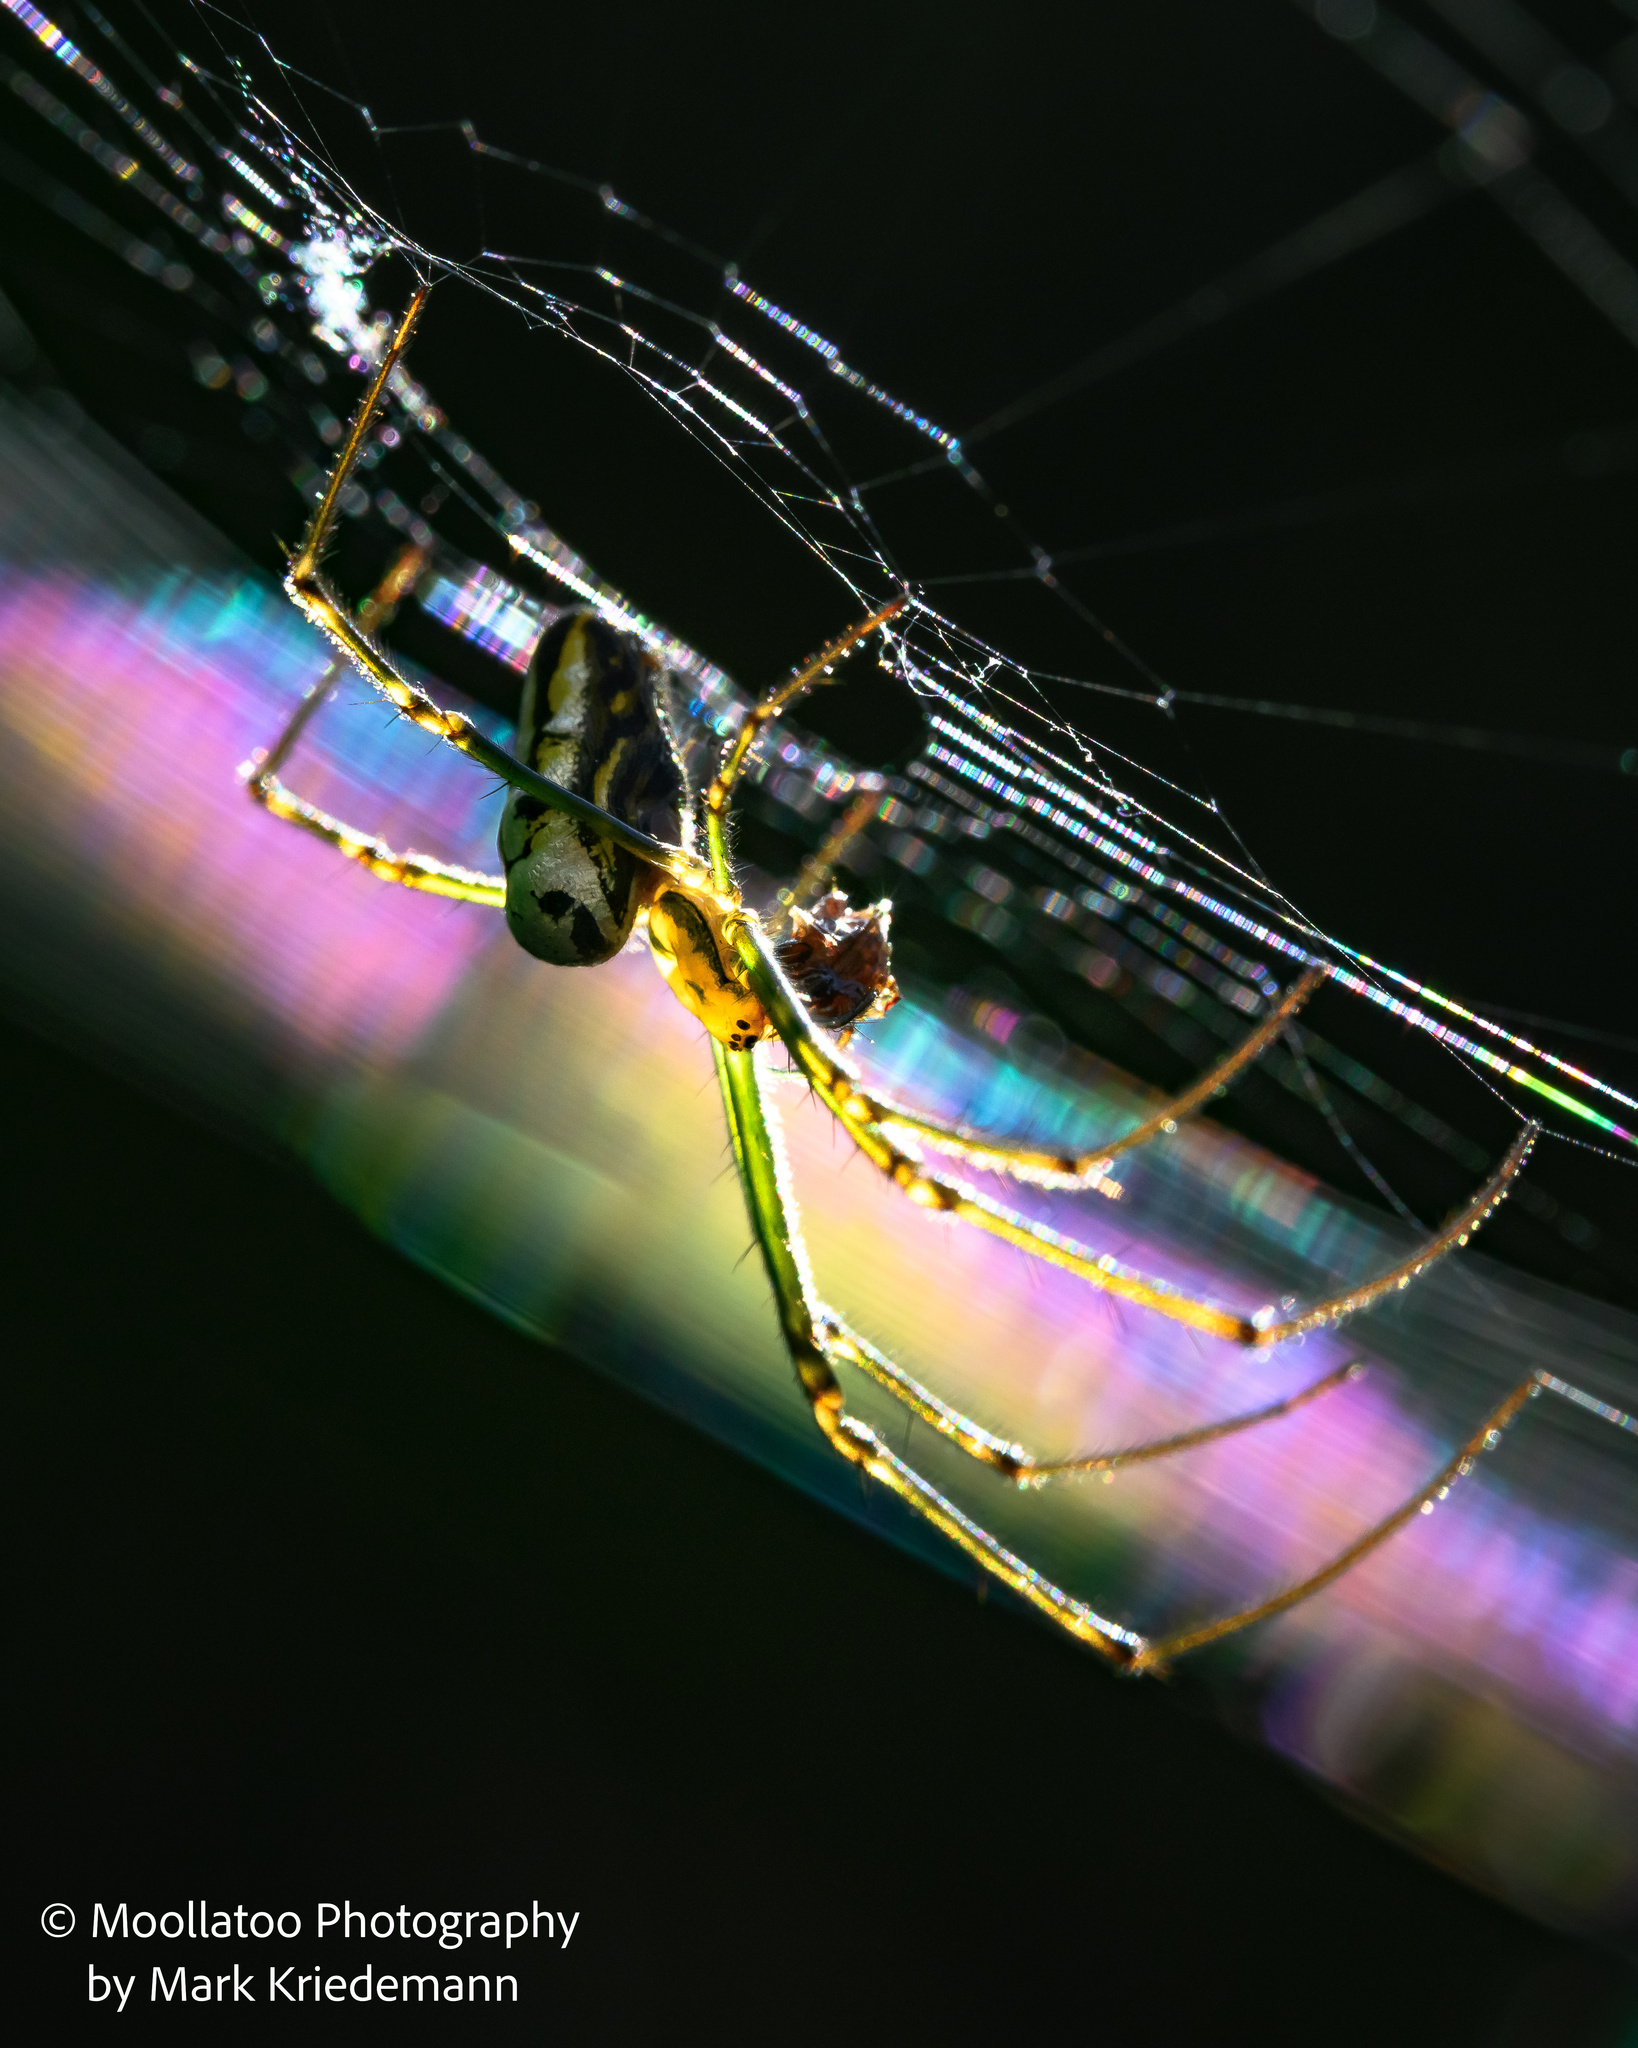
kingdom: Animalia
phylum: Arthropoda
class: Arachnida
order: Araneae
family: Tetragnathidae
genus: Leucauge
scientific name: Leucauge dromedaria
